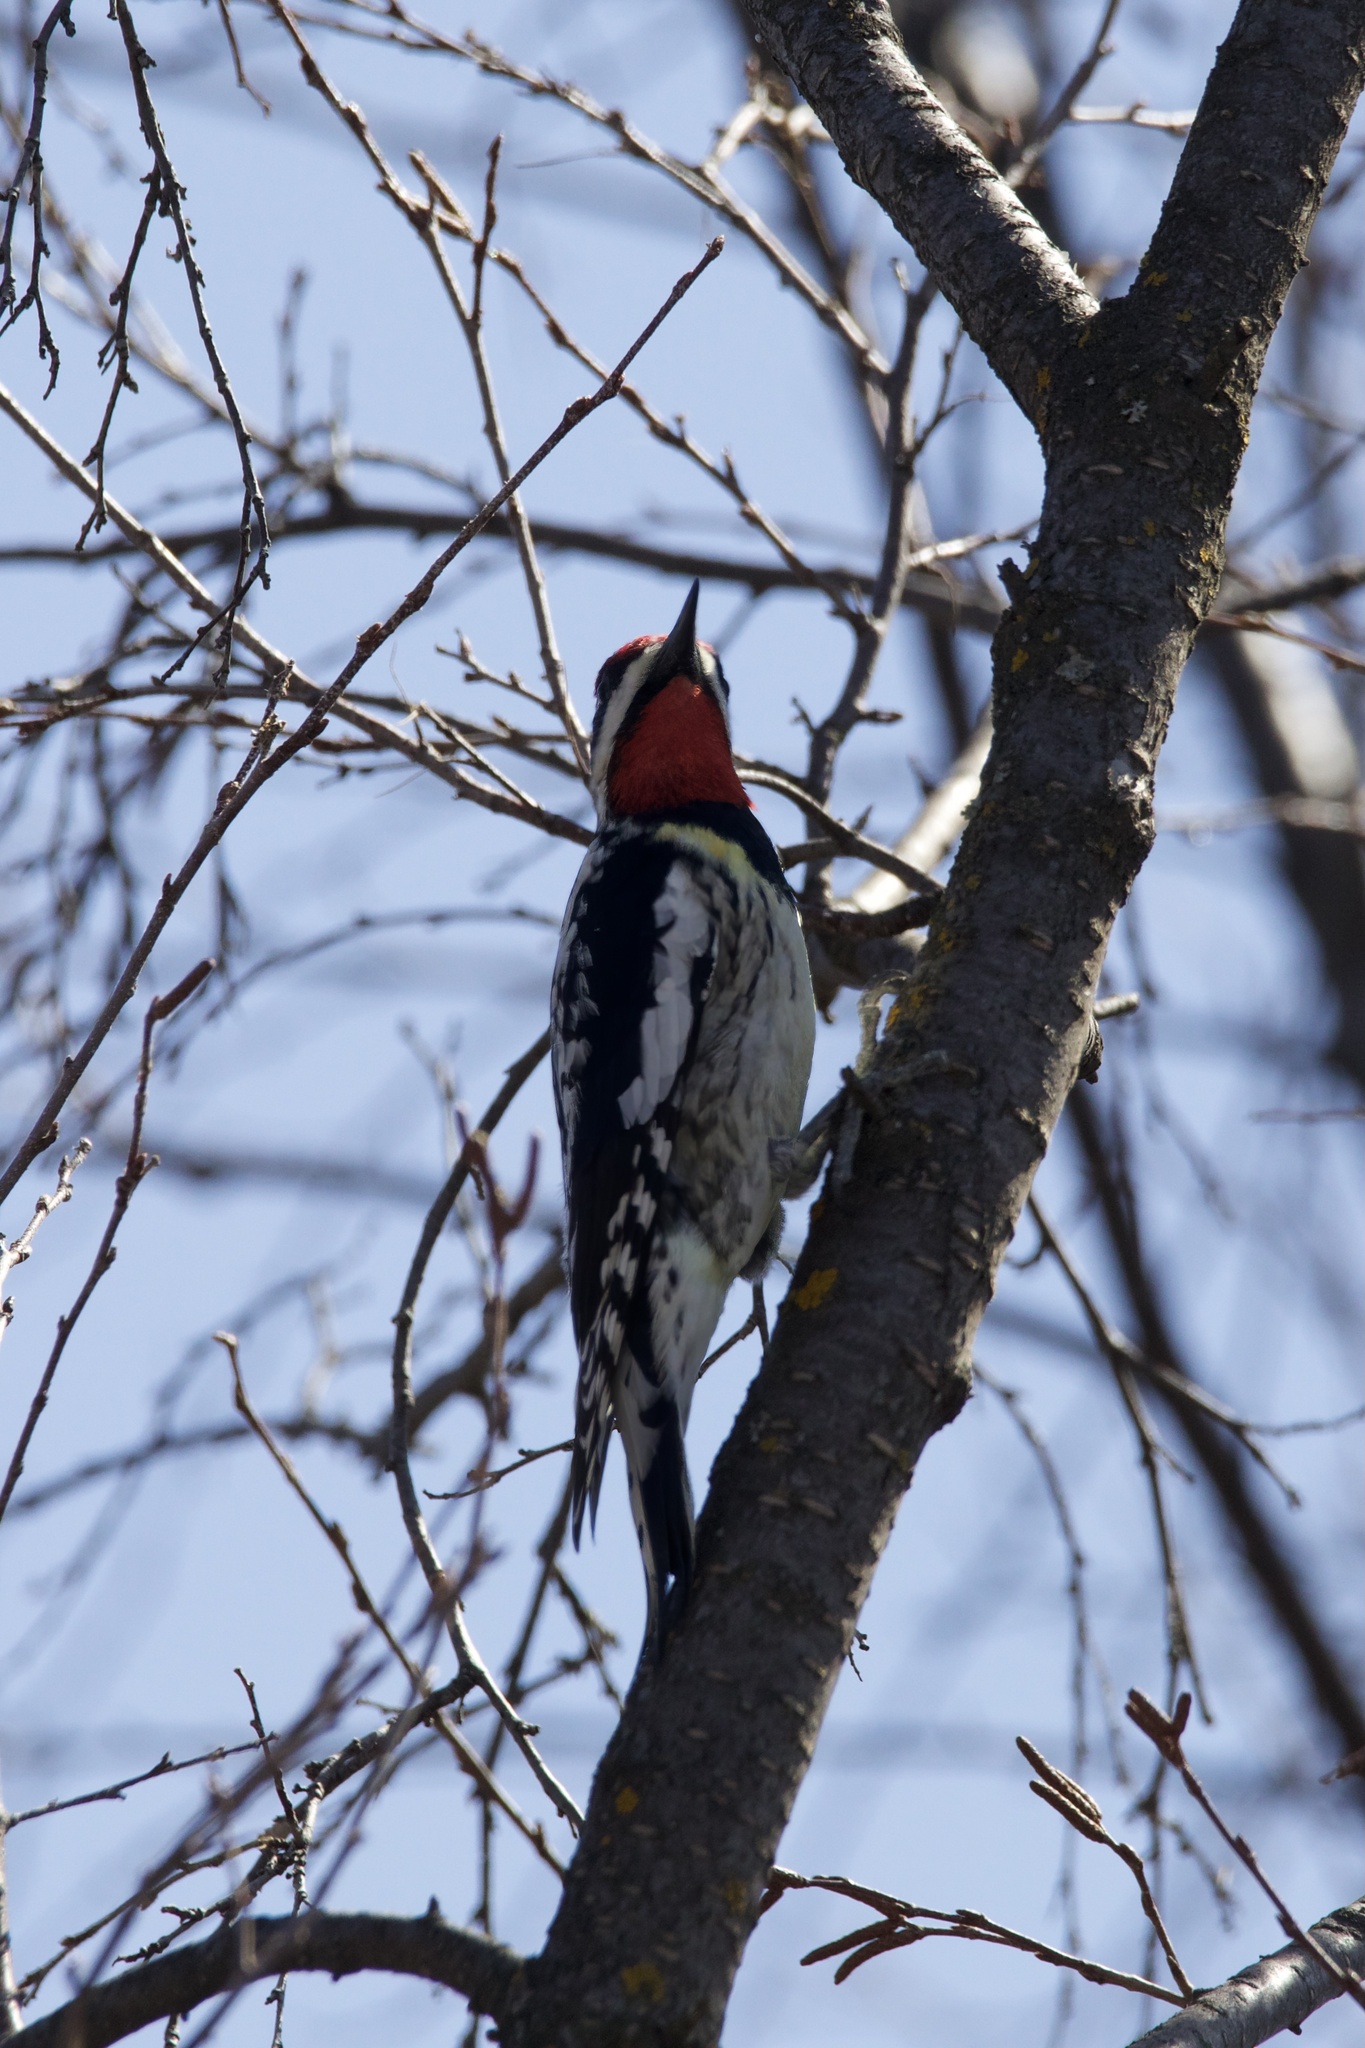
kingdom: Animalia
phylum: Chordata
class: Aves
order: Piciformes
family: Picidae
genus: Sphyrapicus
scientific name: Sphyrapicus varius
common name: Yellow-bellied sapsucker
